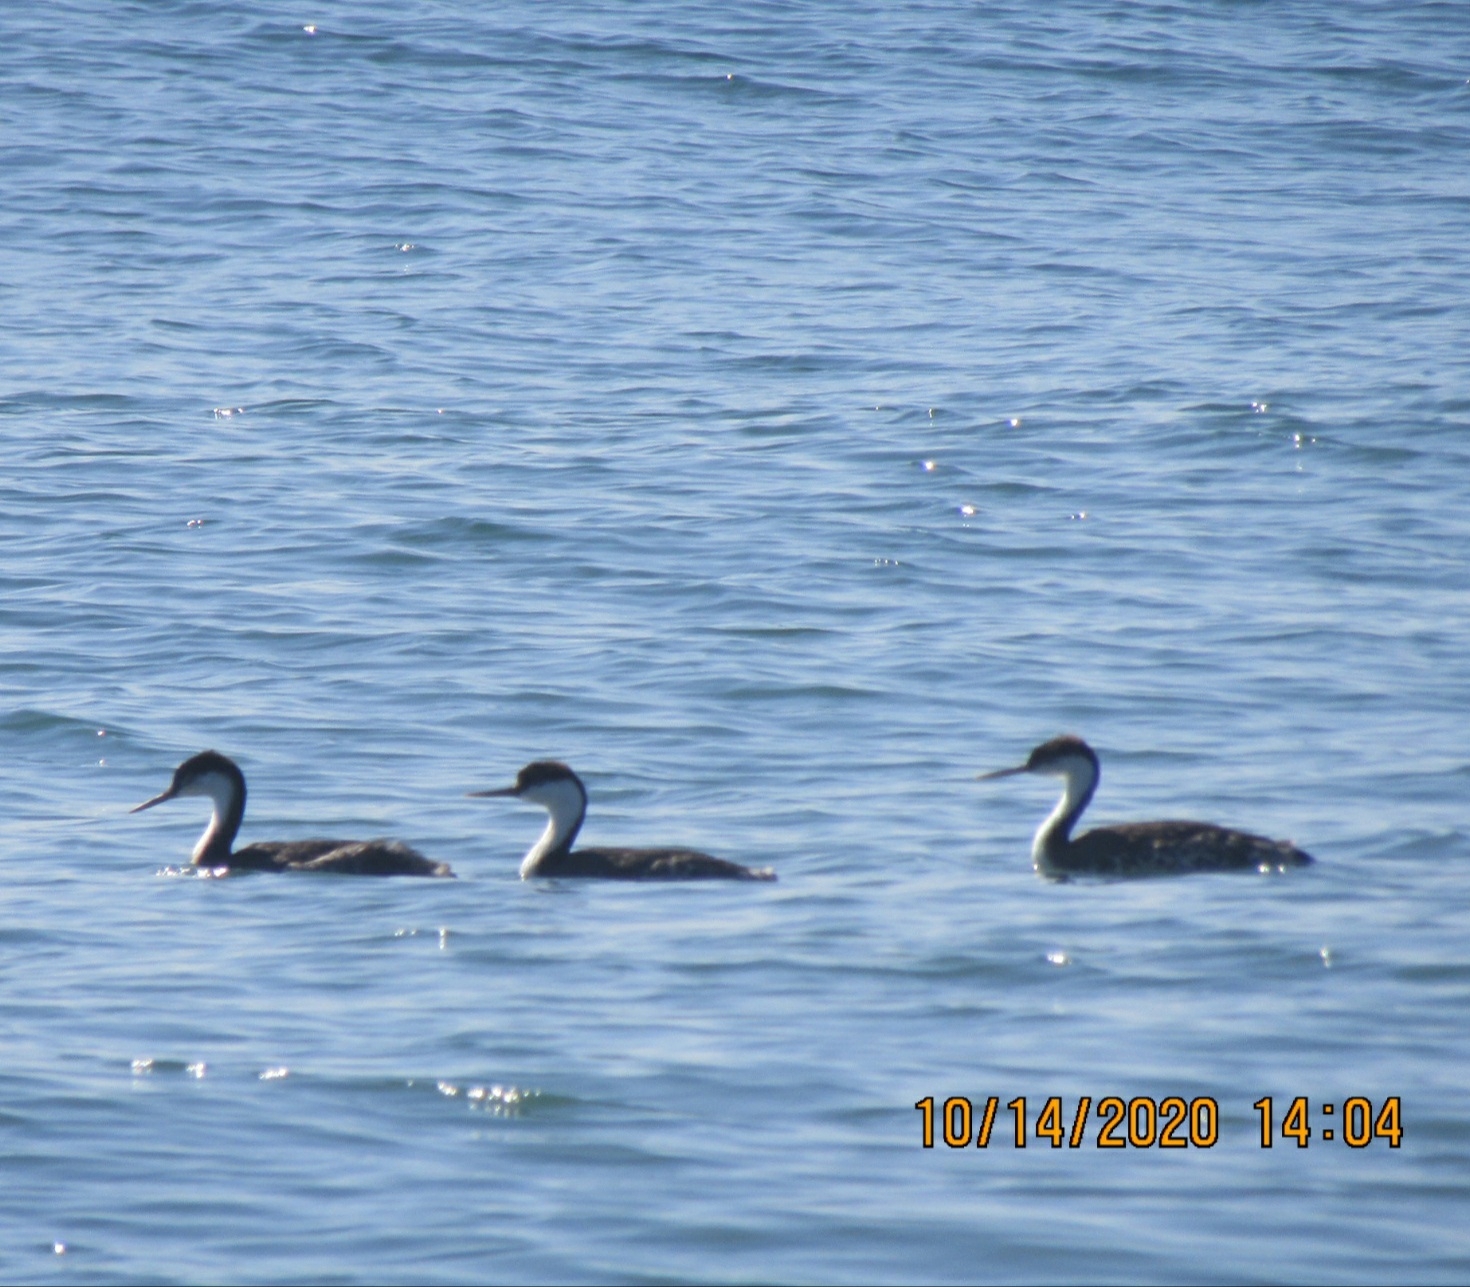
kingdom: Animalia
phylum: Chordata
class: Aves
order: Podicipediformes
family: Podicipedidae
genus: Aechmophorus
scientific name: Aechmophorus occidentalis
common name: Western grebe
